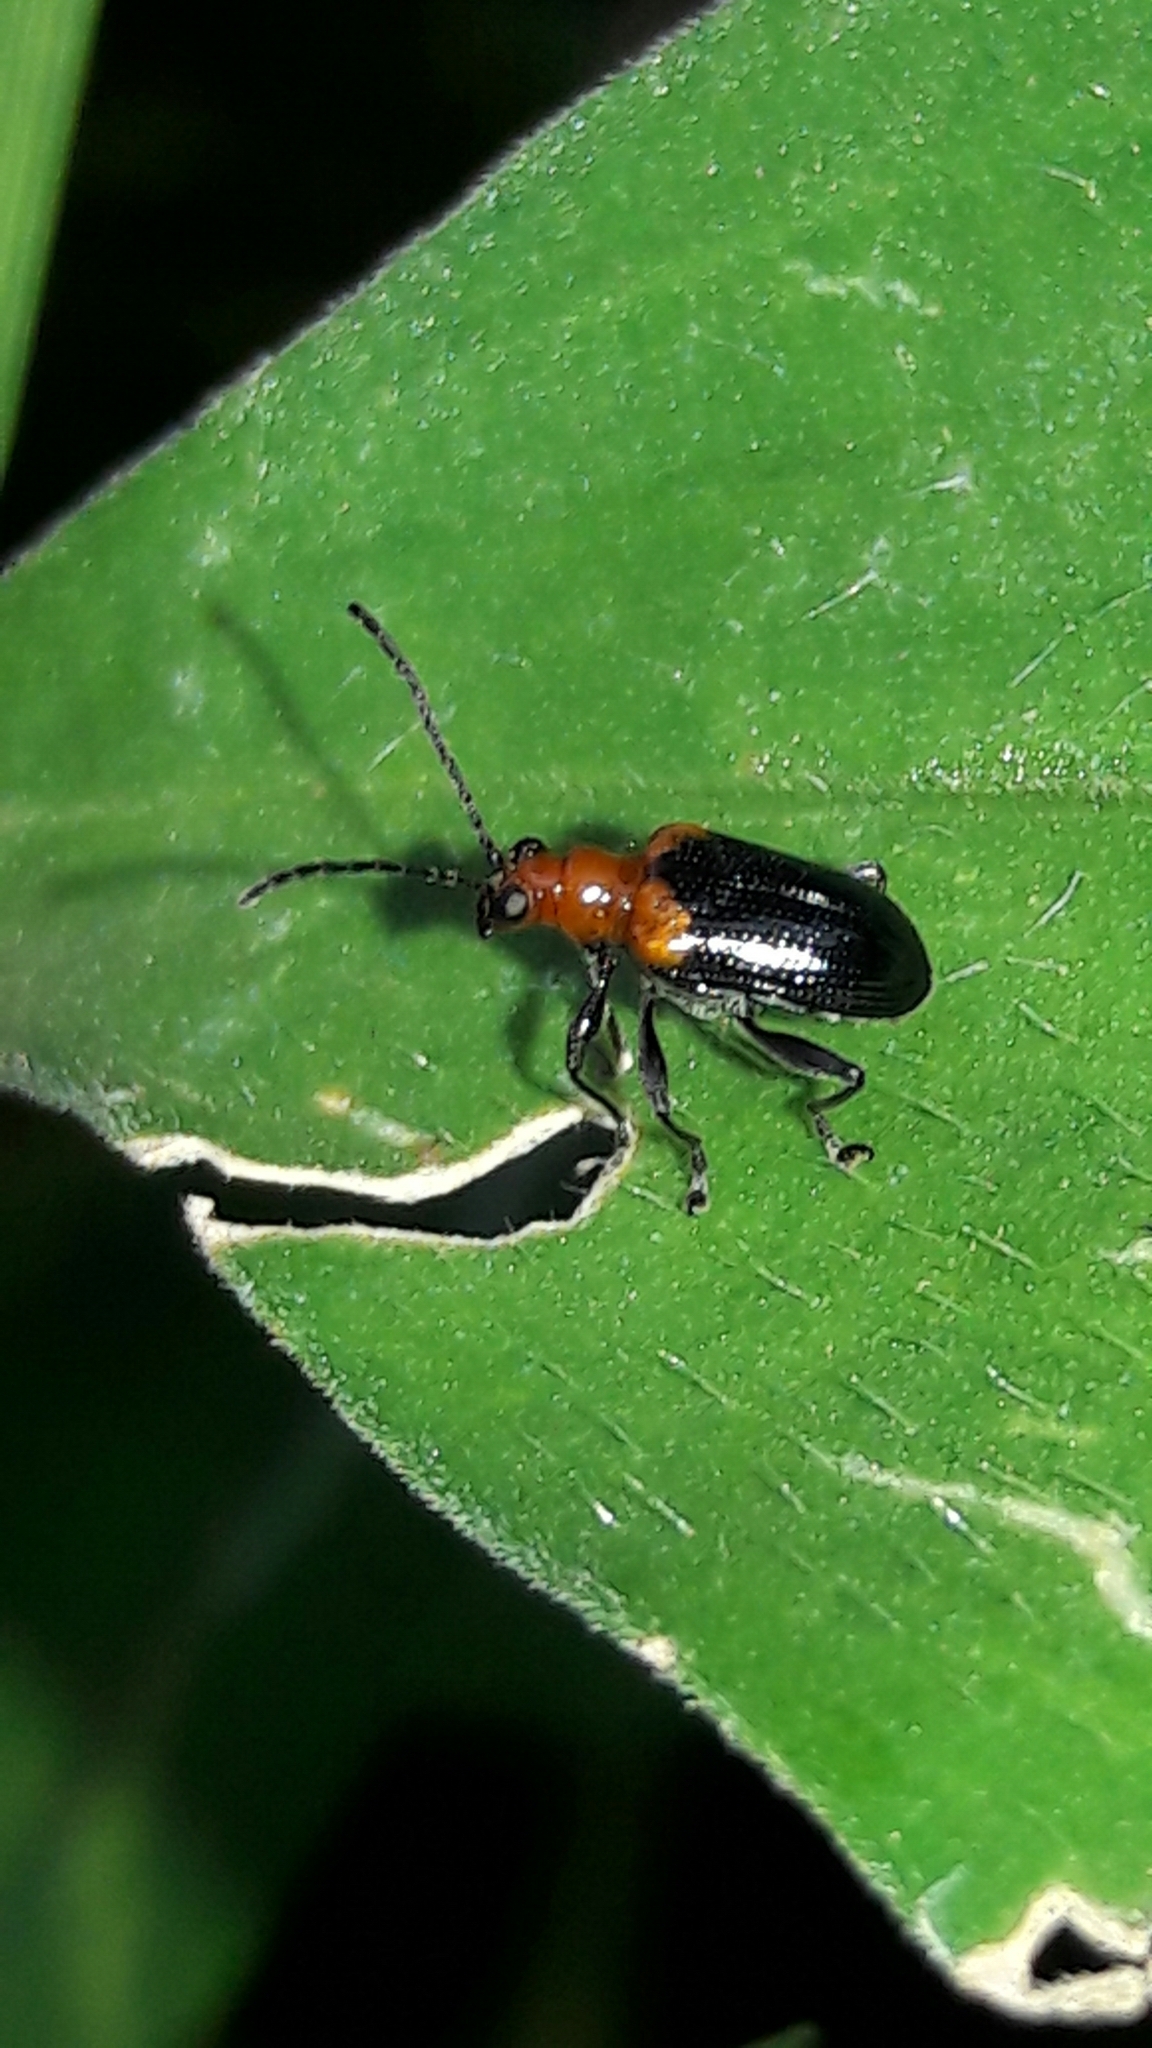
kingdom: Animalia
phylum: Arthropoda
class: Insecta
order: Coleoptera
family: Chrysomelidae
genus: Neolema
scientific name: Neolema
